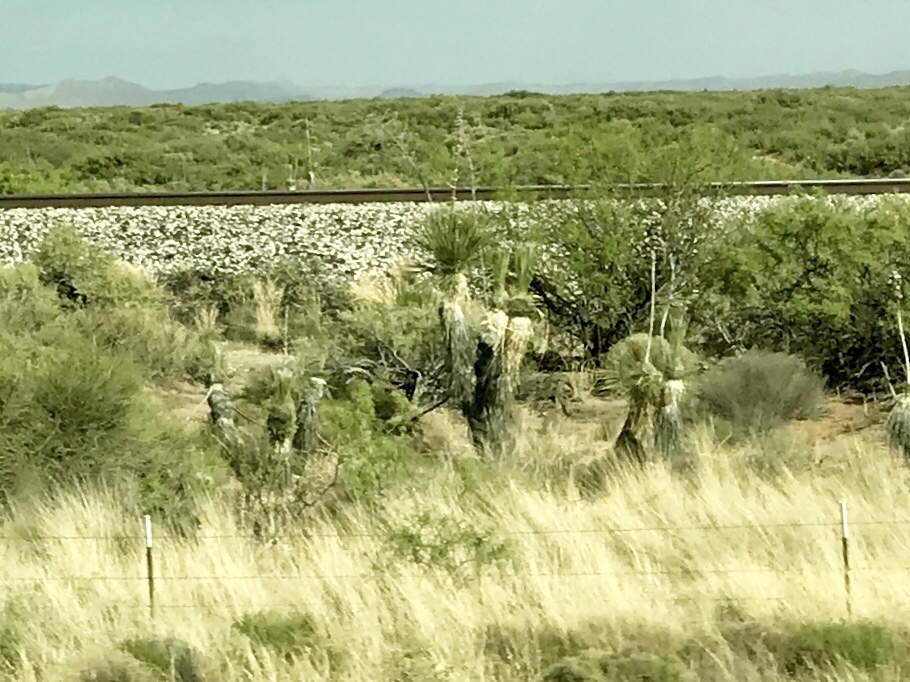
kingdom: Plantae
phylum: Tracheophyta
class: Liliopsida
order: Asparagales
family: Asparagaceae
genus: Yucca
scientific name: Yucca elata
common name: Palmella
